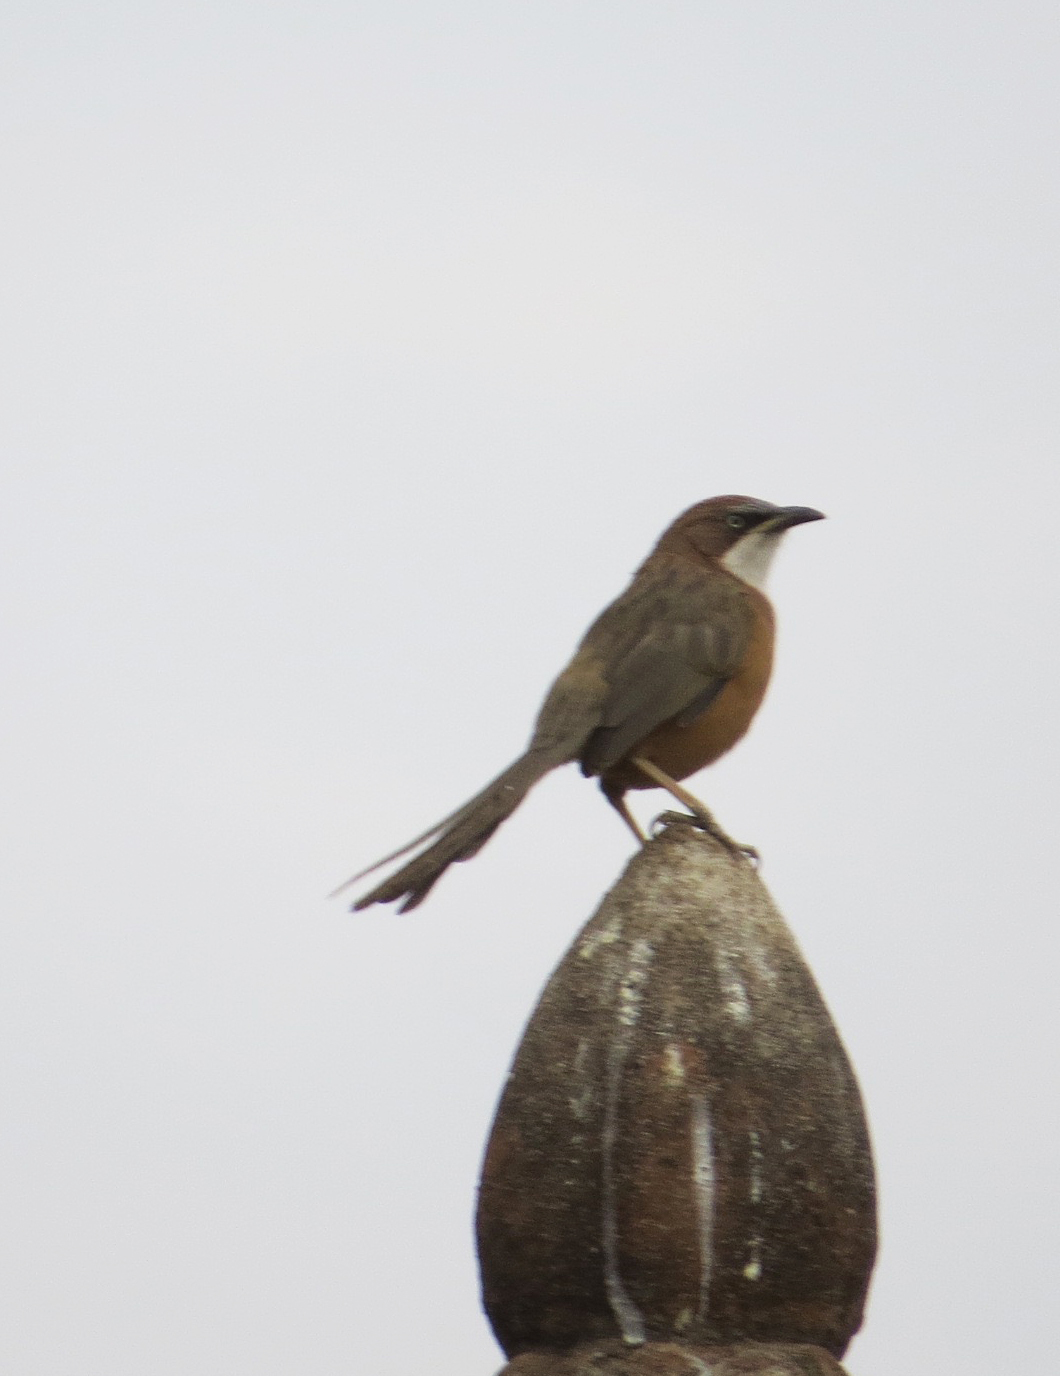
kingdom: Animalia
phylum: Chordata
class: Aves
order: Passeriformes
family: Leiothrichidae
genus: Turdoides
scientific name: Turdoides gularis
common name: White-throated babbler
